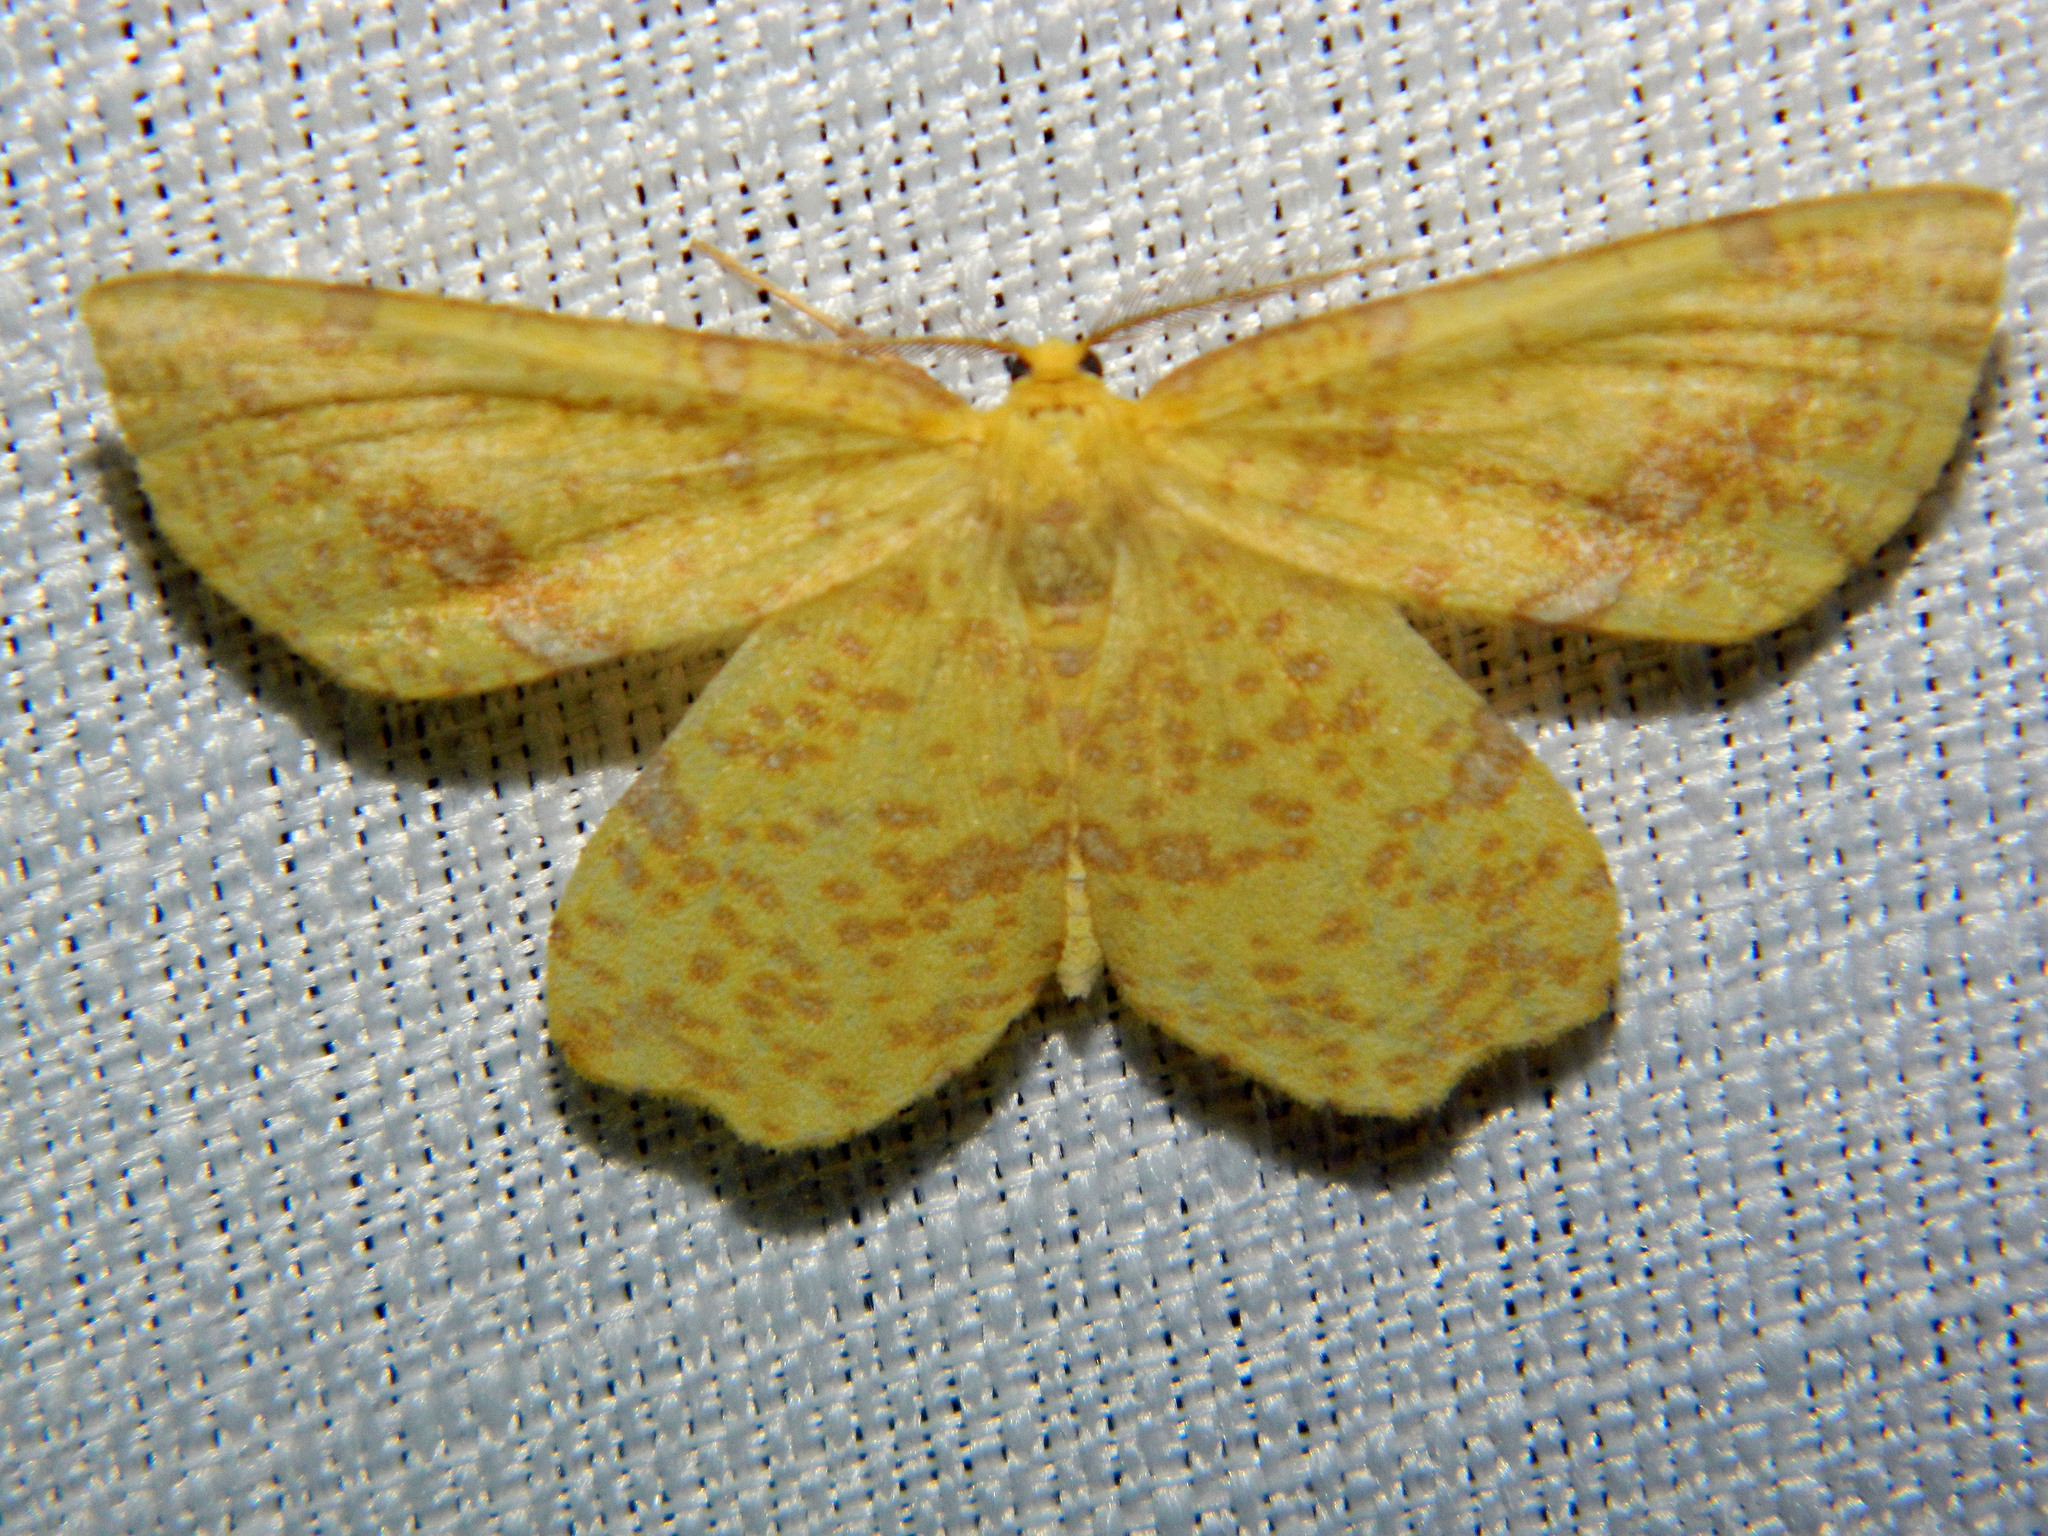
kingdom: Animalia
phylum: Arthropoda
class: Insecta
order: Lepidoptera
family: Geometridae
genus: Xanthotype
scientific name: Xanthotype
